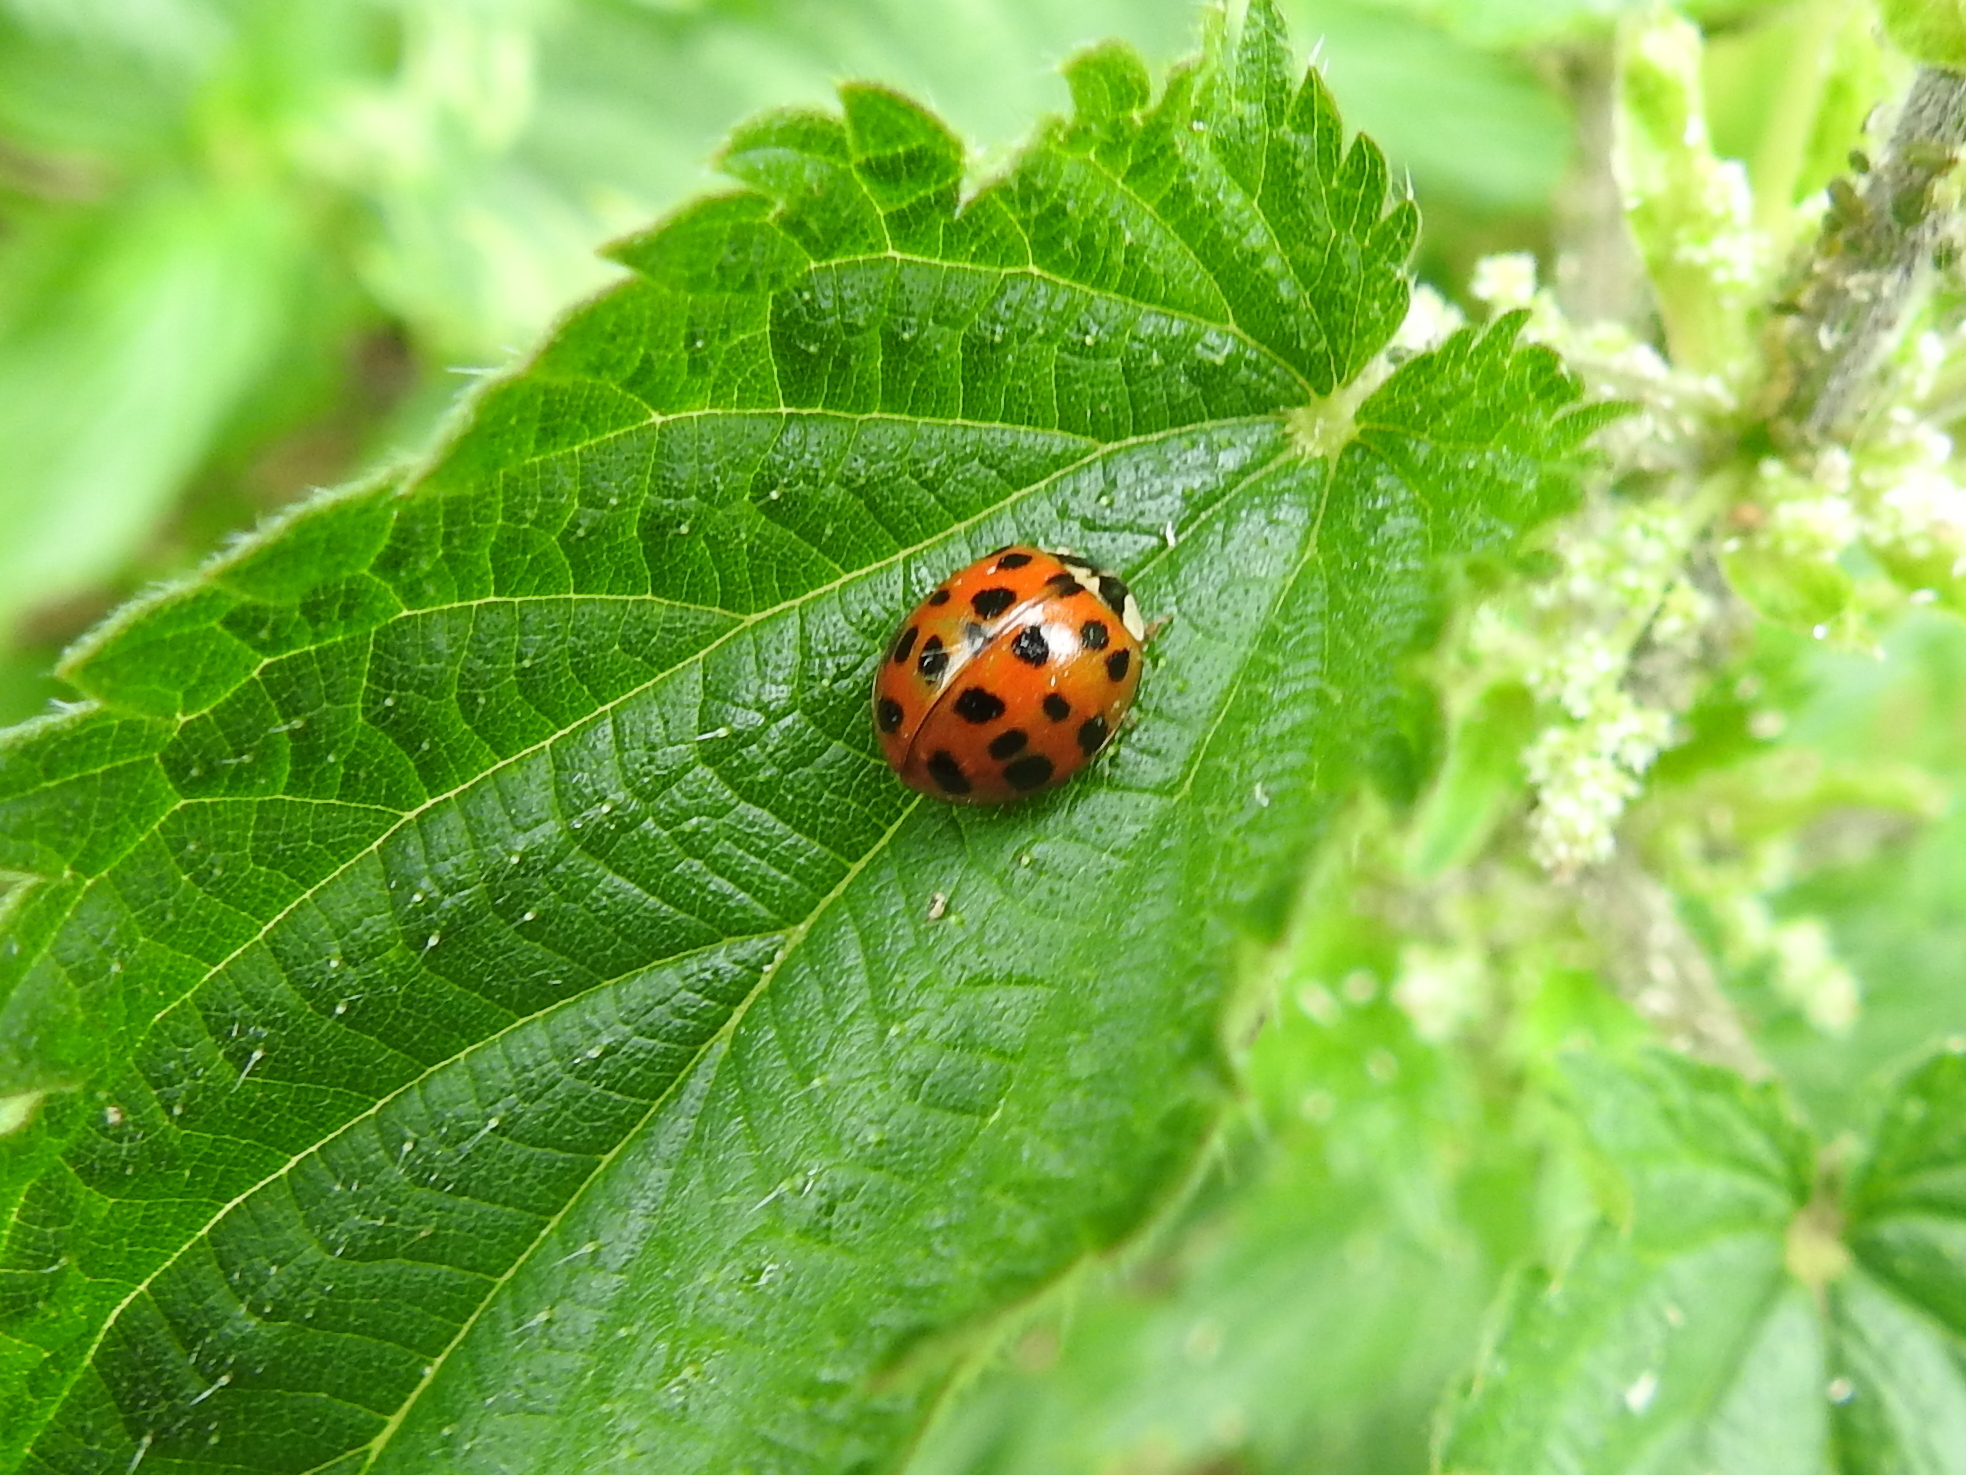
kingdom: Animalia
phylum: Arthropoda
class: Insecta
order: Coleoptera
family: Coccinellidae
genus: Harmonia
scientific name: Harmonia axyridis
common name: Harlequin ladybird
